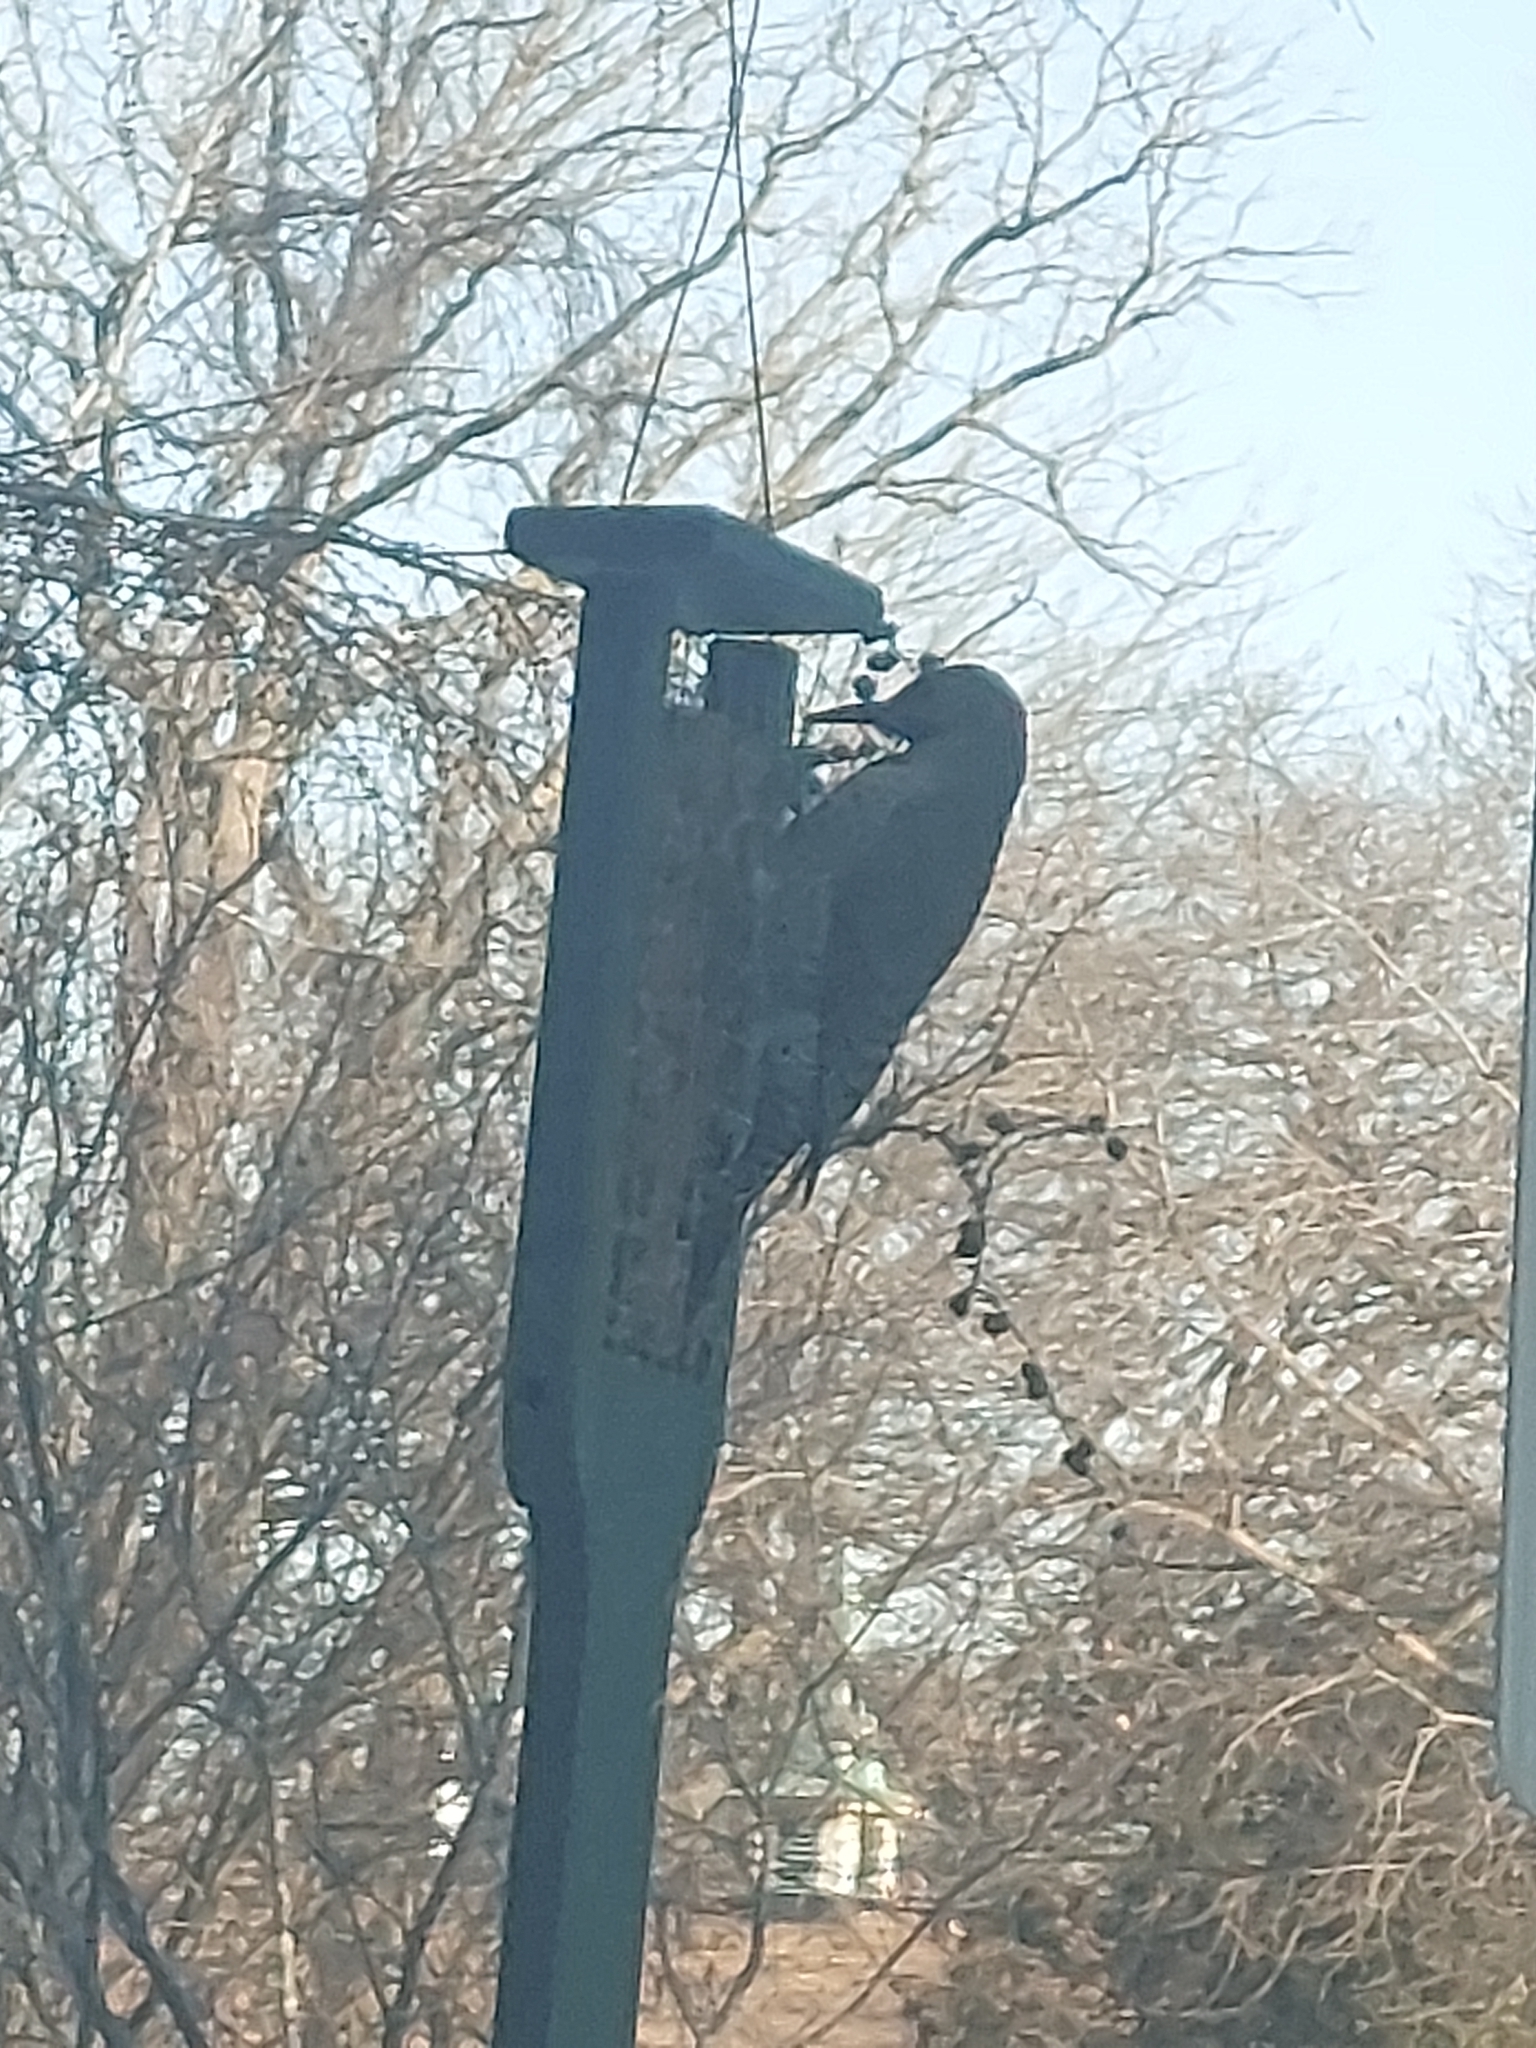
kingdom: Animalia
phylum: Chordata
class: Aves
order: Piciformes
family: Picidae
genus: Colaptes
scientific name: Colaptes auratus
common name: Northern flicker
